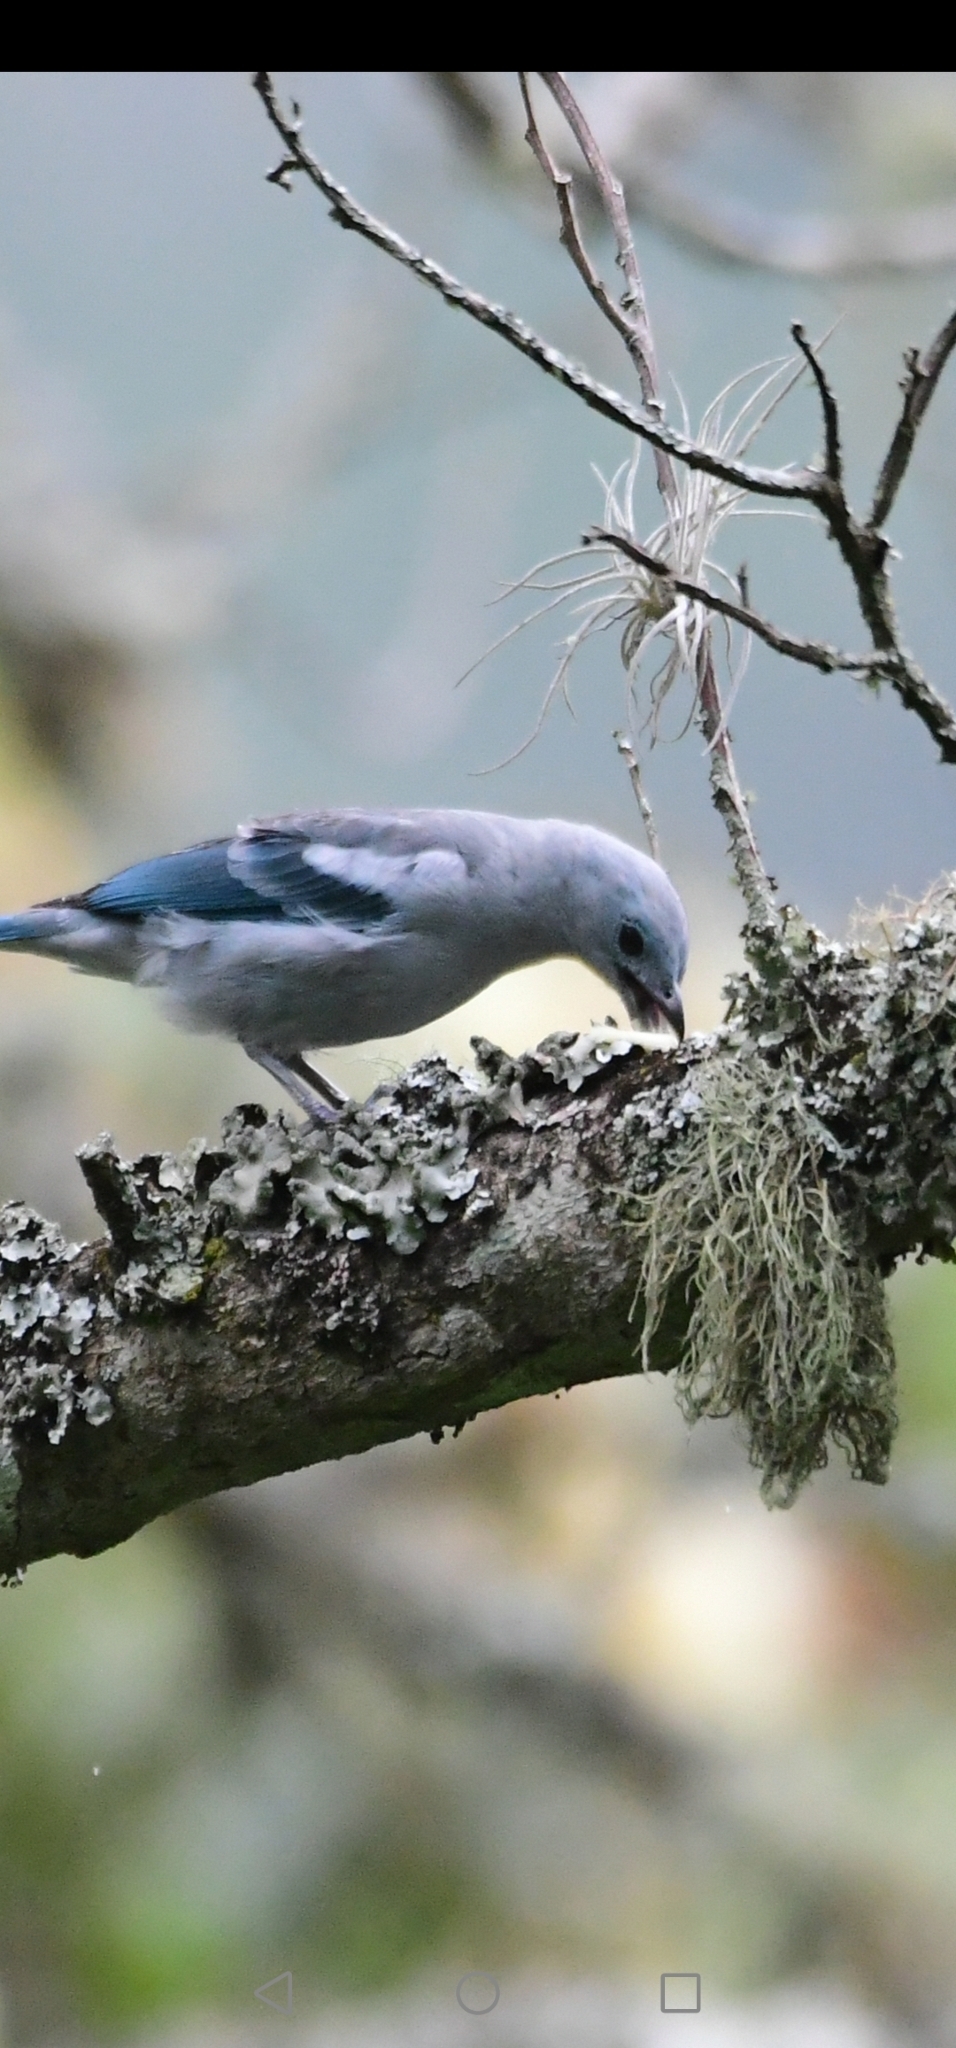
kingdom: Animalia
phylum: Chordata
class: Aves
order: Passeriformes
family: Thraupidae
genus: Thraupis
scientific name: Thraupis episcopus
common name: Blue-grey tanager
